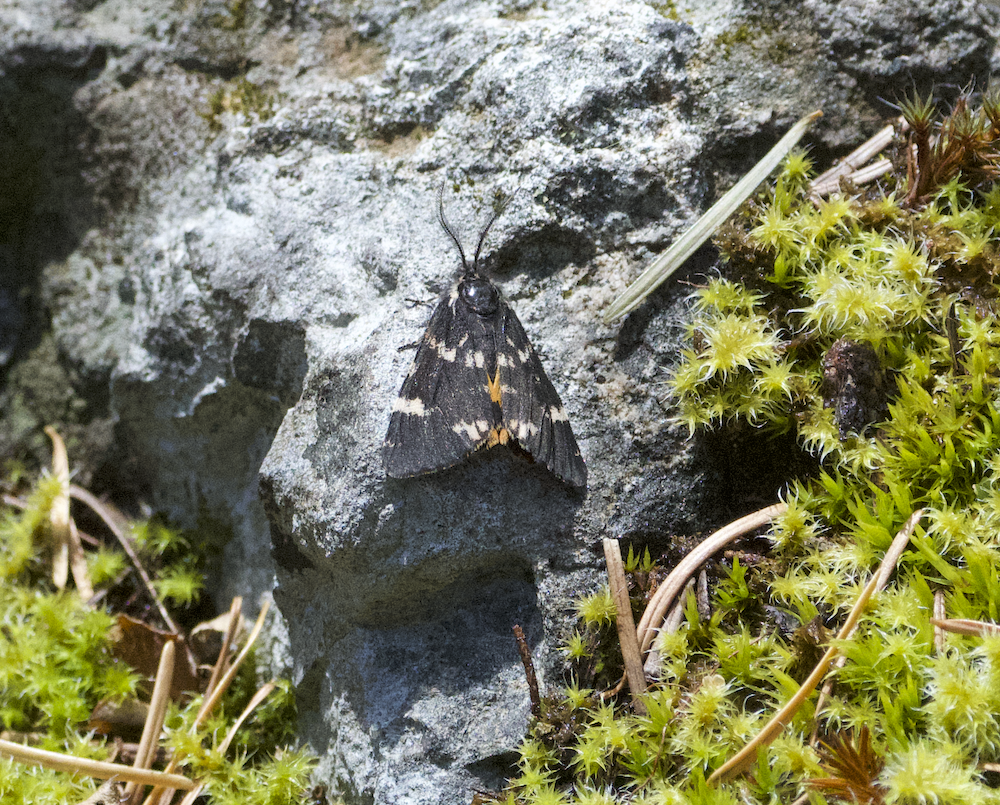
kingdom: Animalia
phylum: Arthropoda
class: Insecta
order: Lepidoptera
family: Erebidae
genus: Leptarctia
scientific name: Leptarctia californiae
